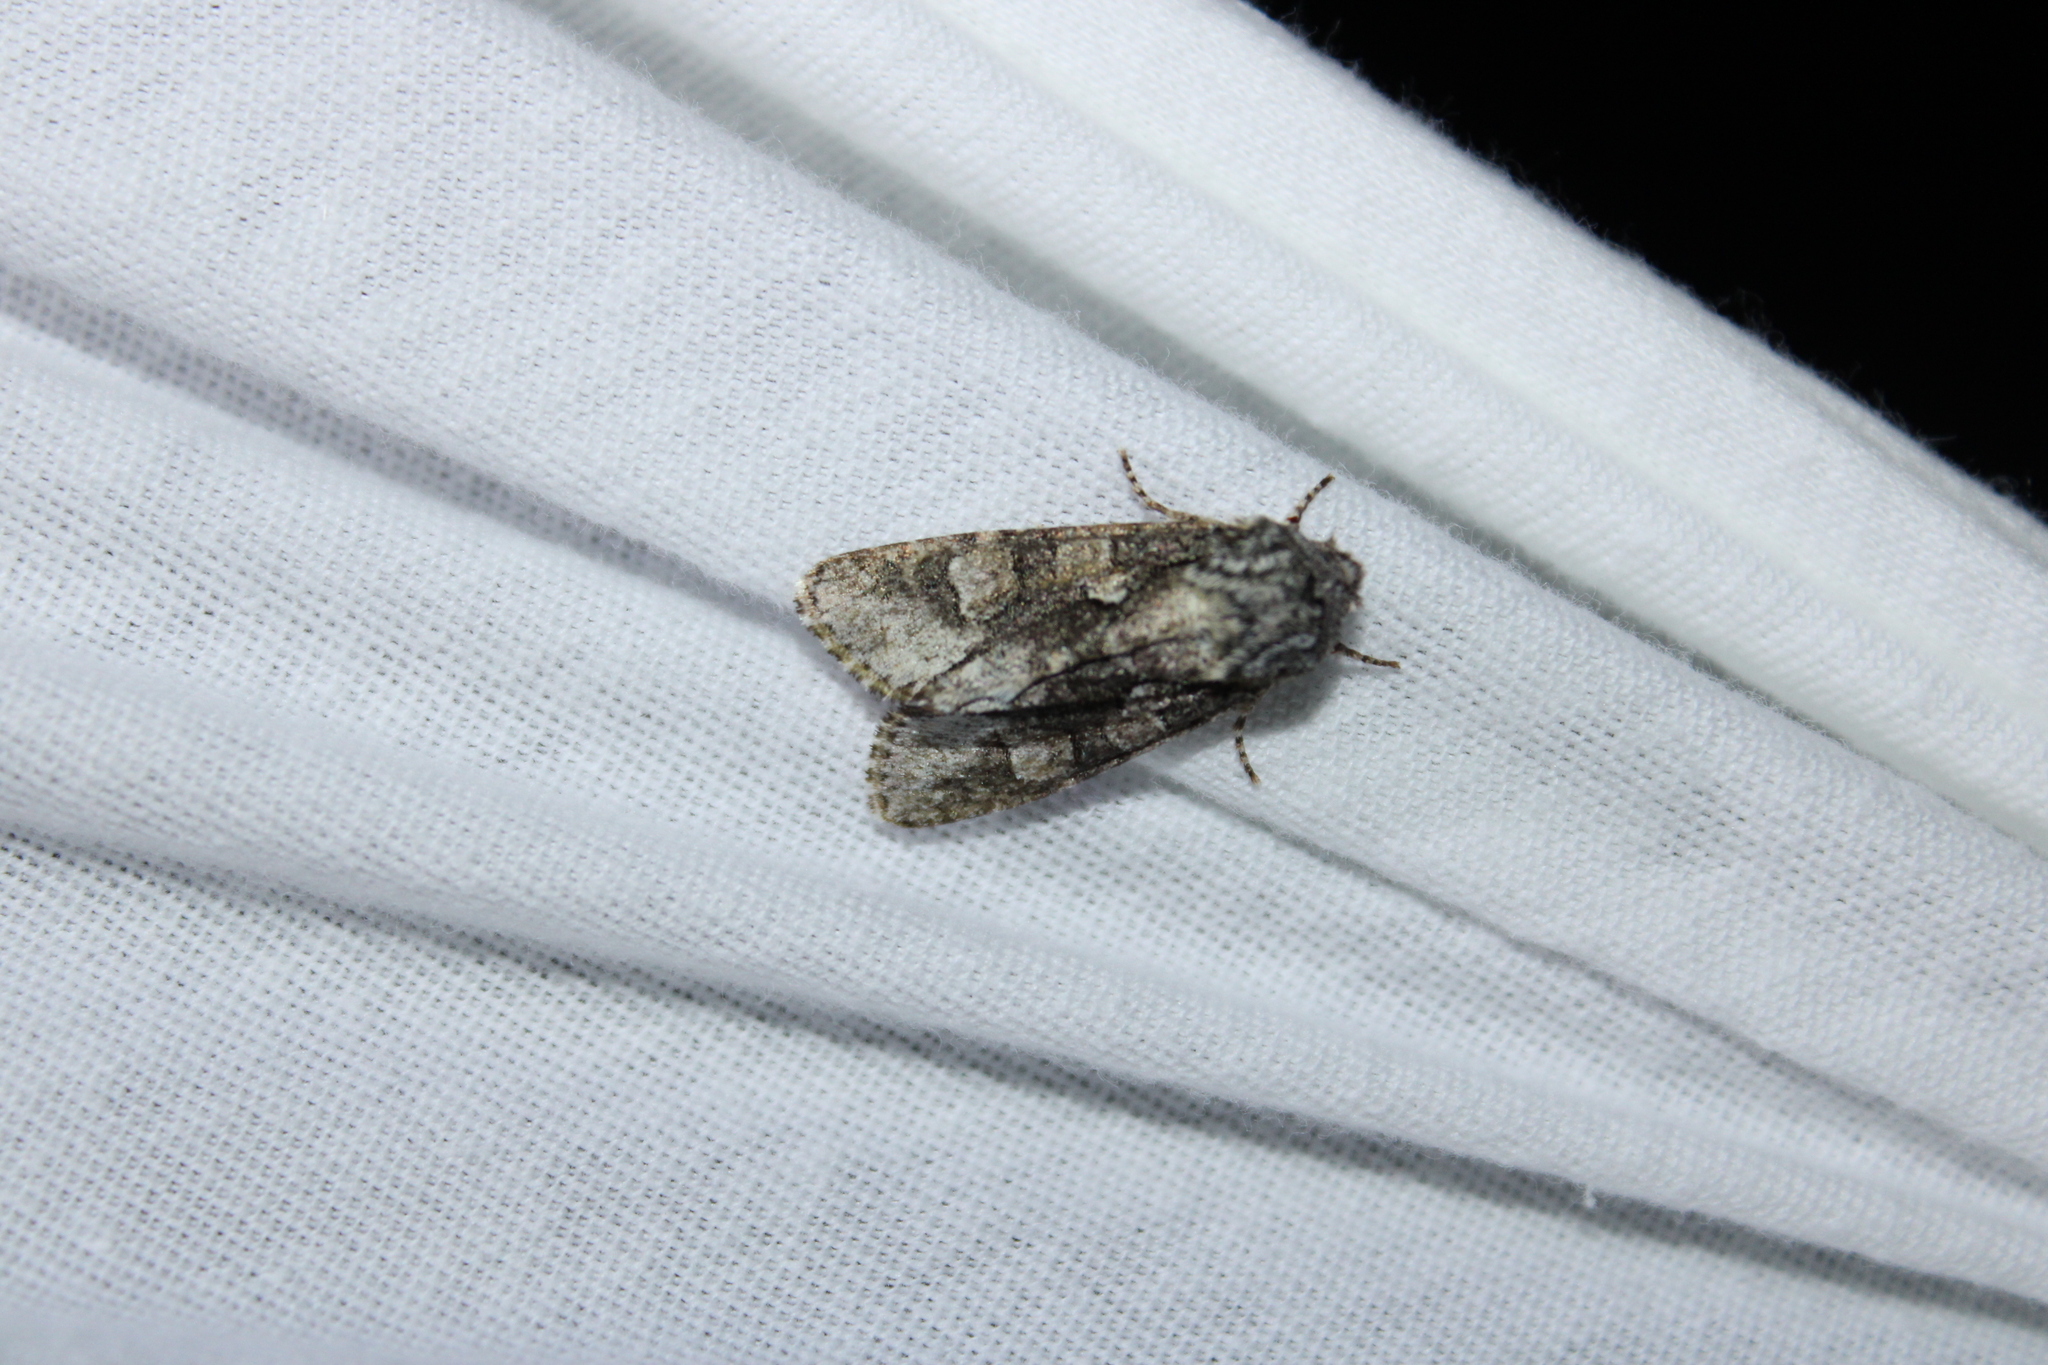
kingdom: Animalia
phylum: Arthropoda
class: Insecta
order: Lepidoptera
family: Noctuidae
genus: Psaphida
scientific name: Psaphida resumens
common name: Figure-eight sallow
